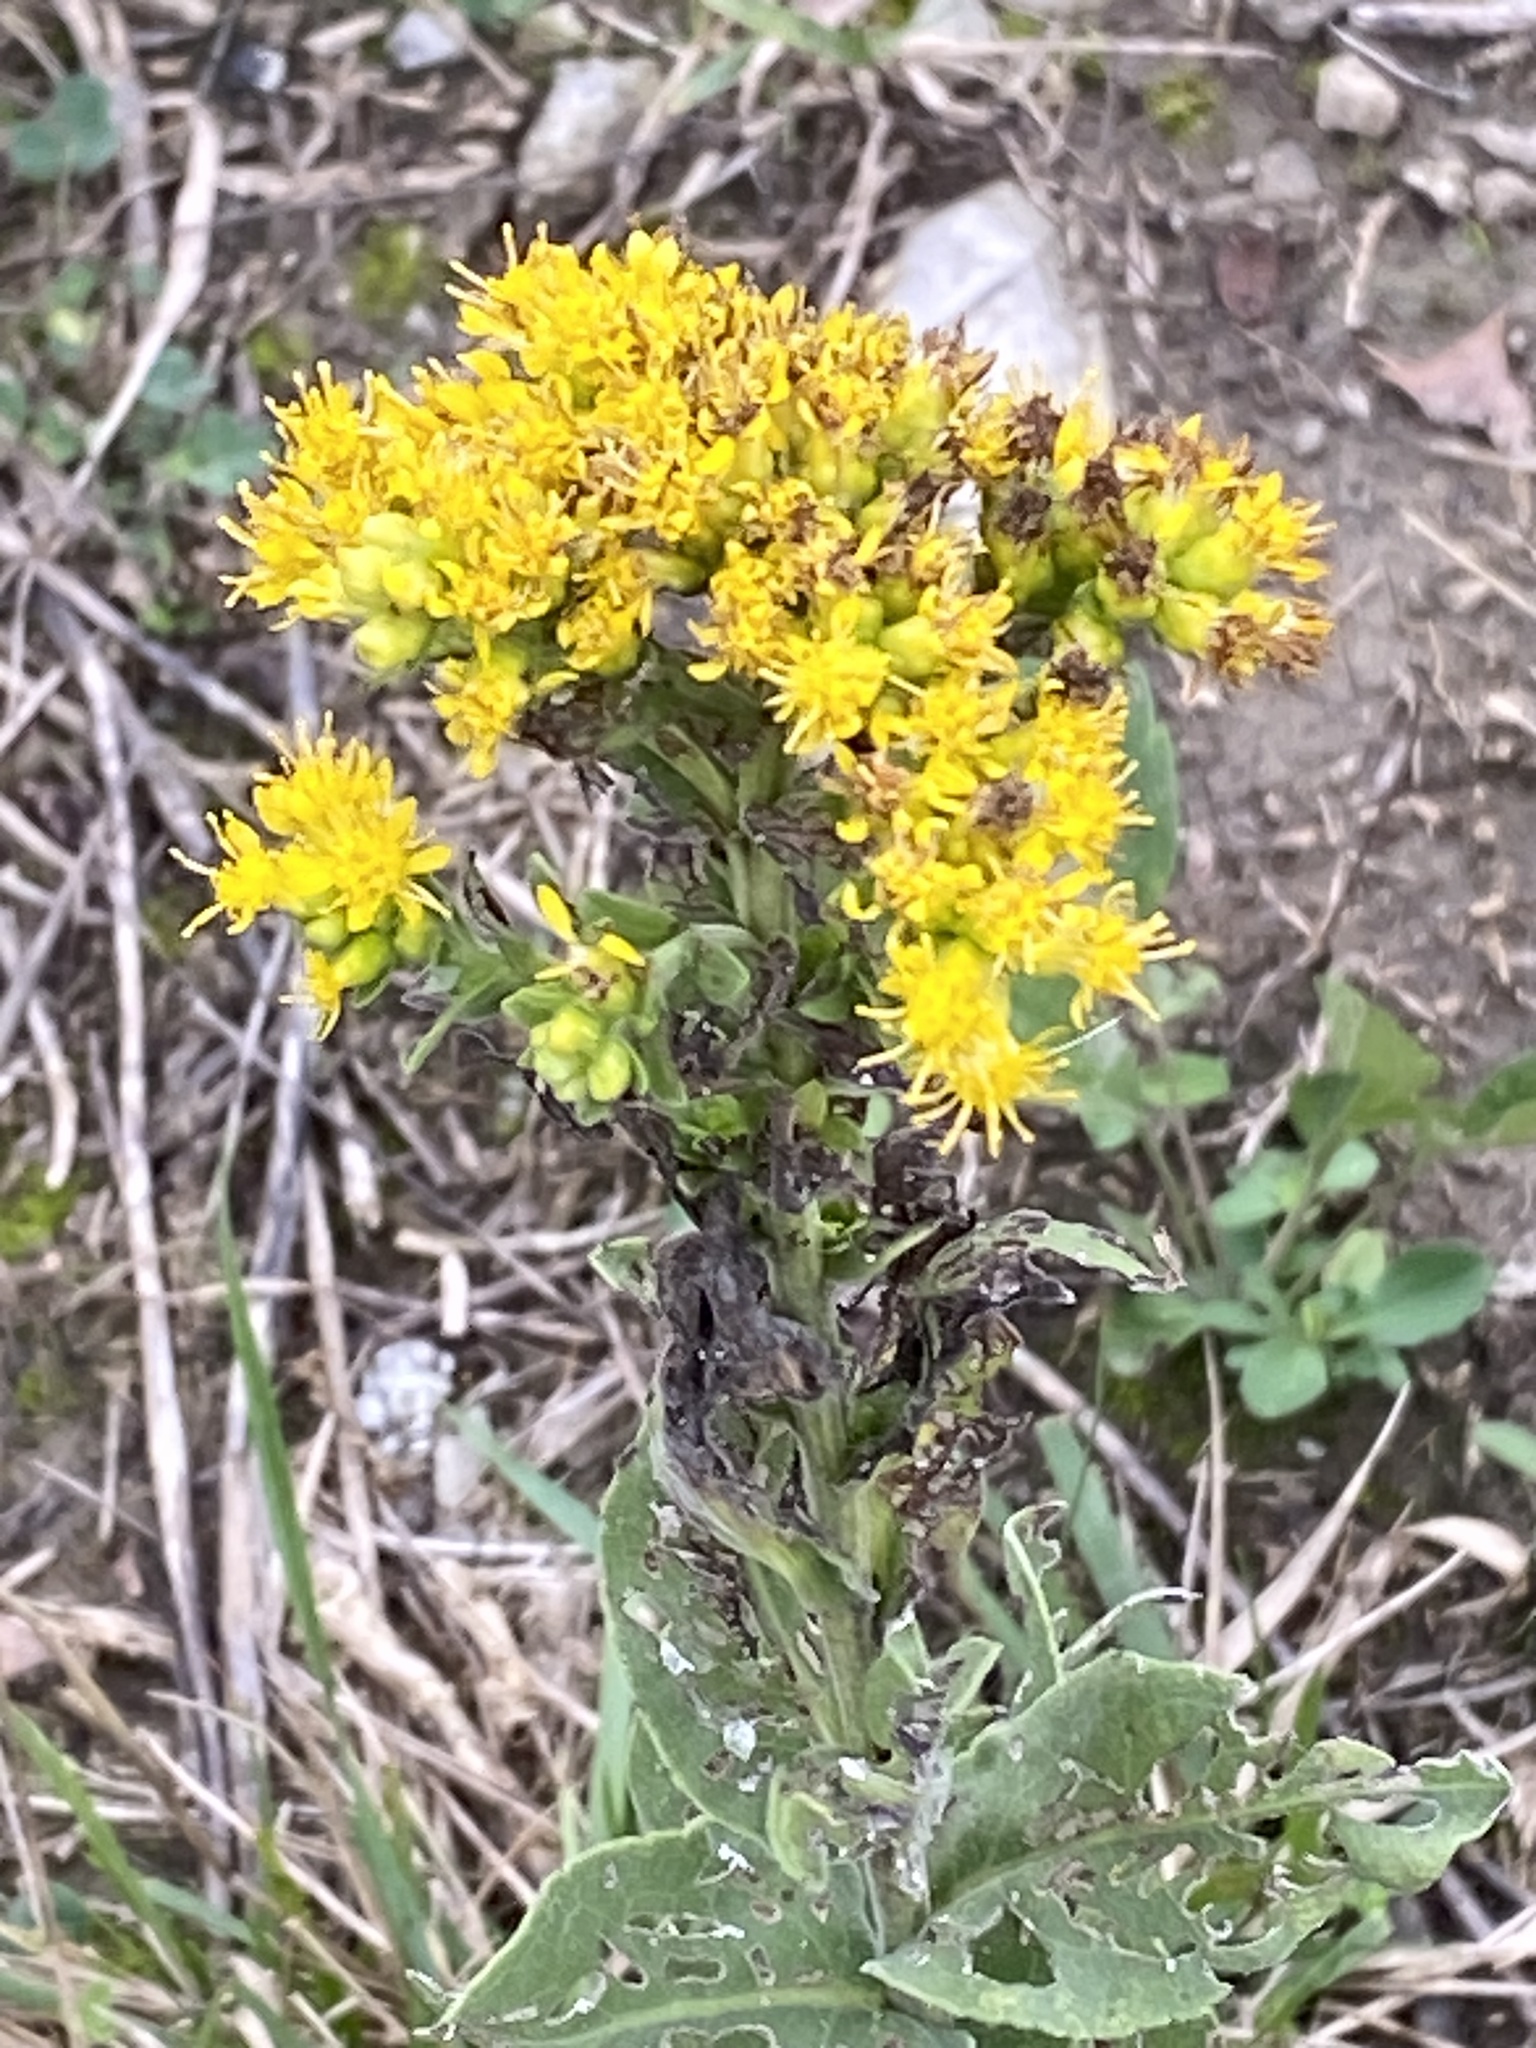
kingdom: Plantae
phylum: Tracheophyta
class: Magnoliopsida
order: Asterales
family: Asteraceae
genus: Solidago
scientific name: Solidago rigida
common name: Rigid goldenrod
